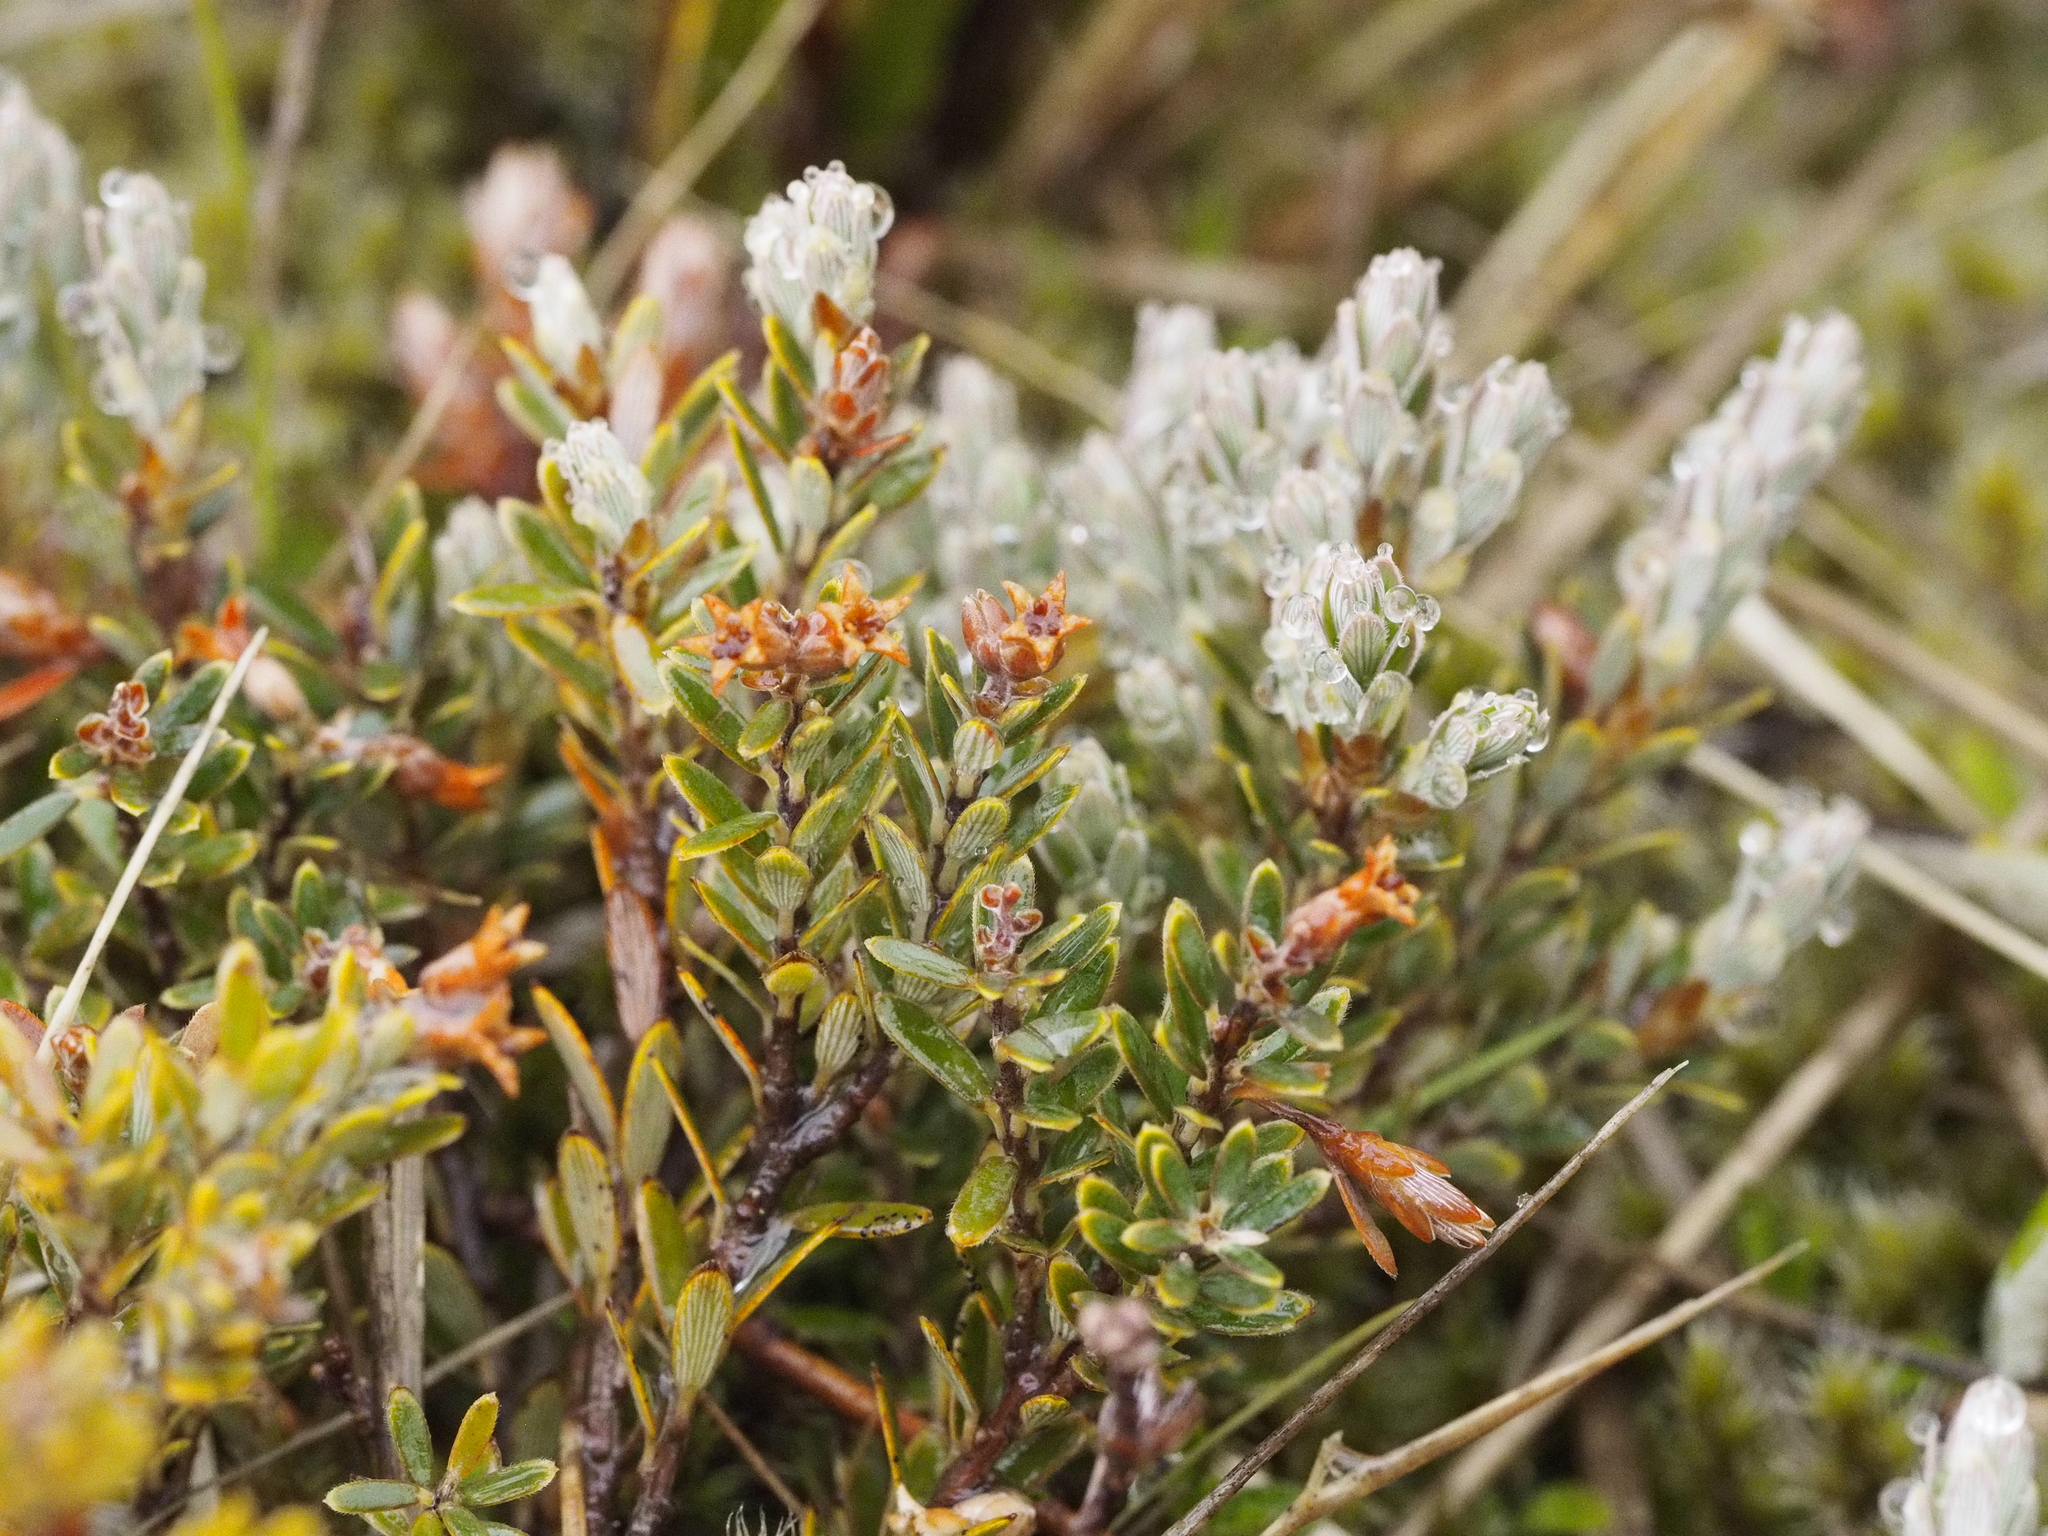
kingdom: Plantae
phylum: Tracheophyta
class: Magnoliopsida
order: Ericales
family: Ericaceae
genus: Acrothamnus
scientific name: Acrothamnus colensoi
